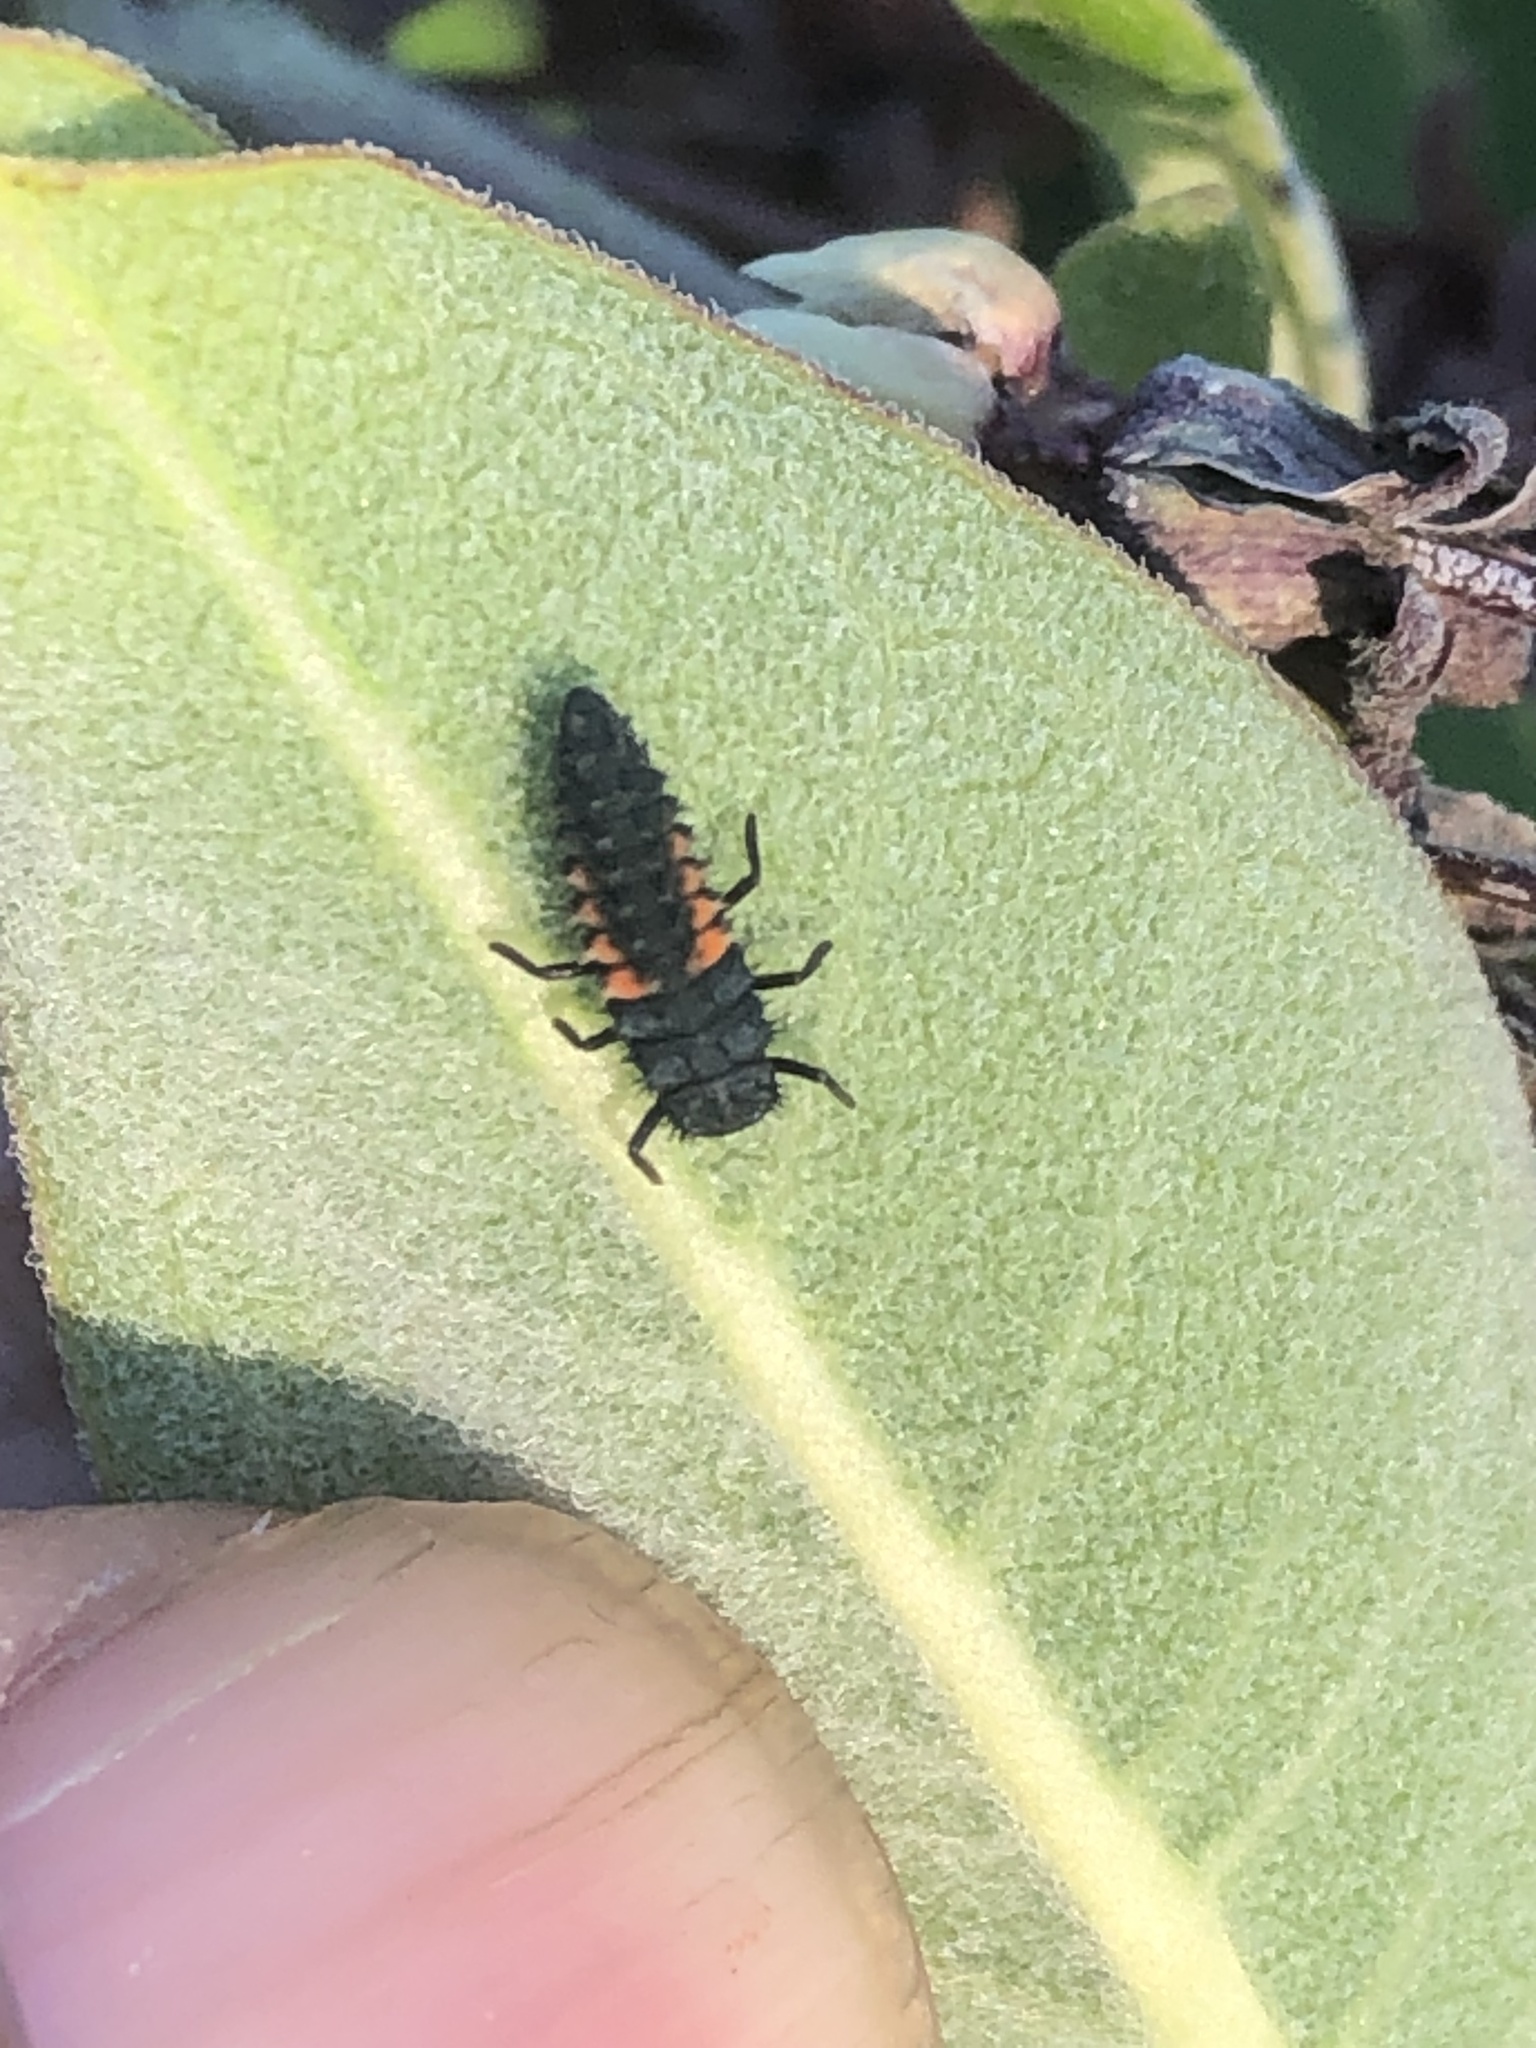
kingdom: Animalia
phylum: Arthropoda
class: Insecta
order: Coleoptera
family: Coccinellidae
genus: Harmonia
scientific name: Harmonia axyridis
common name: Harlequin ladybird
